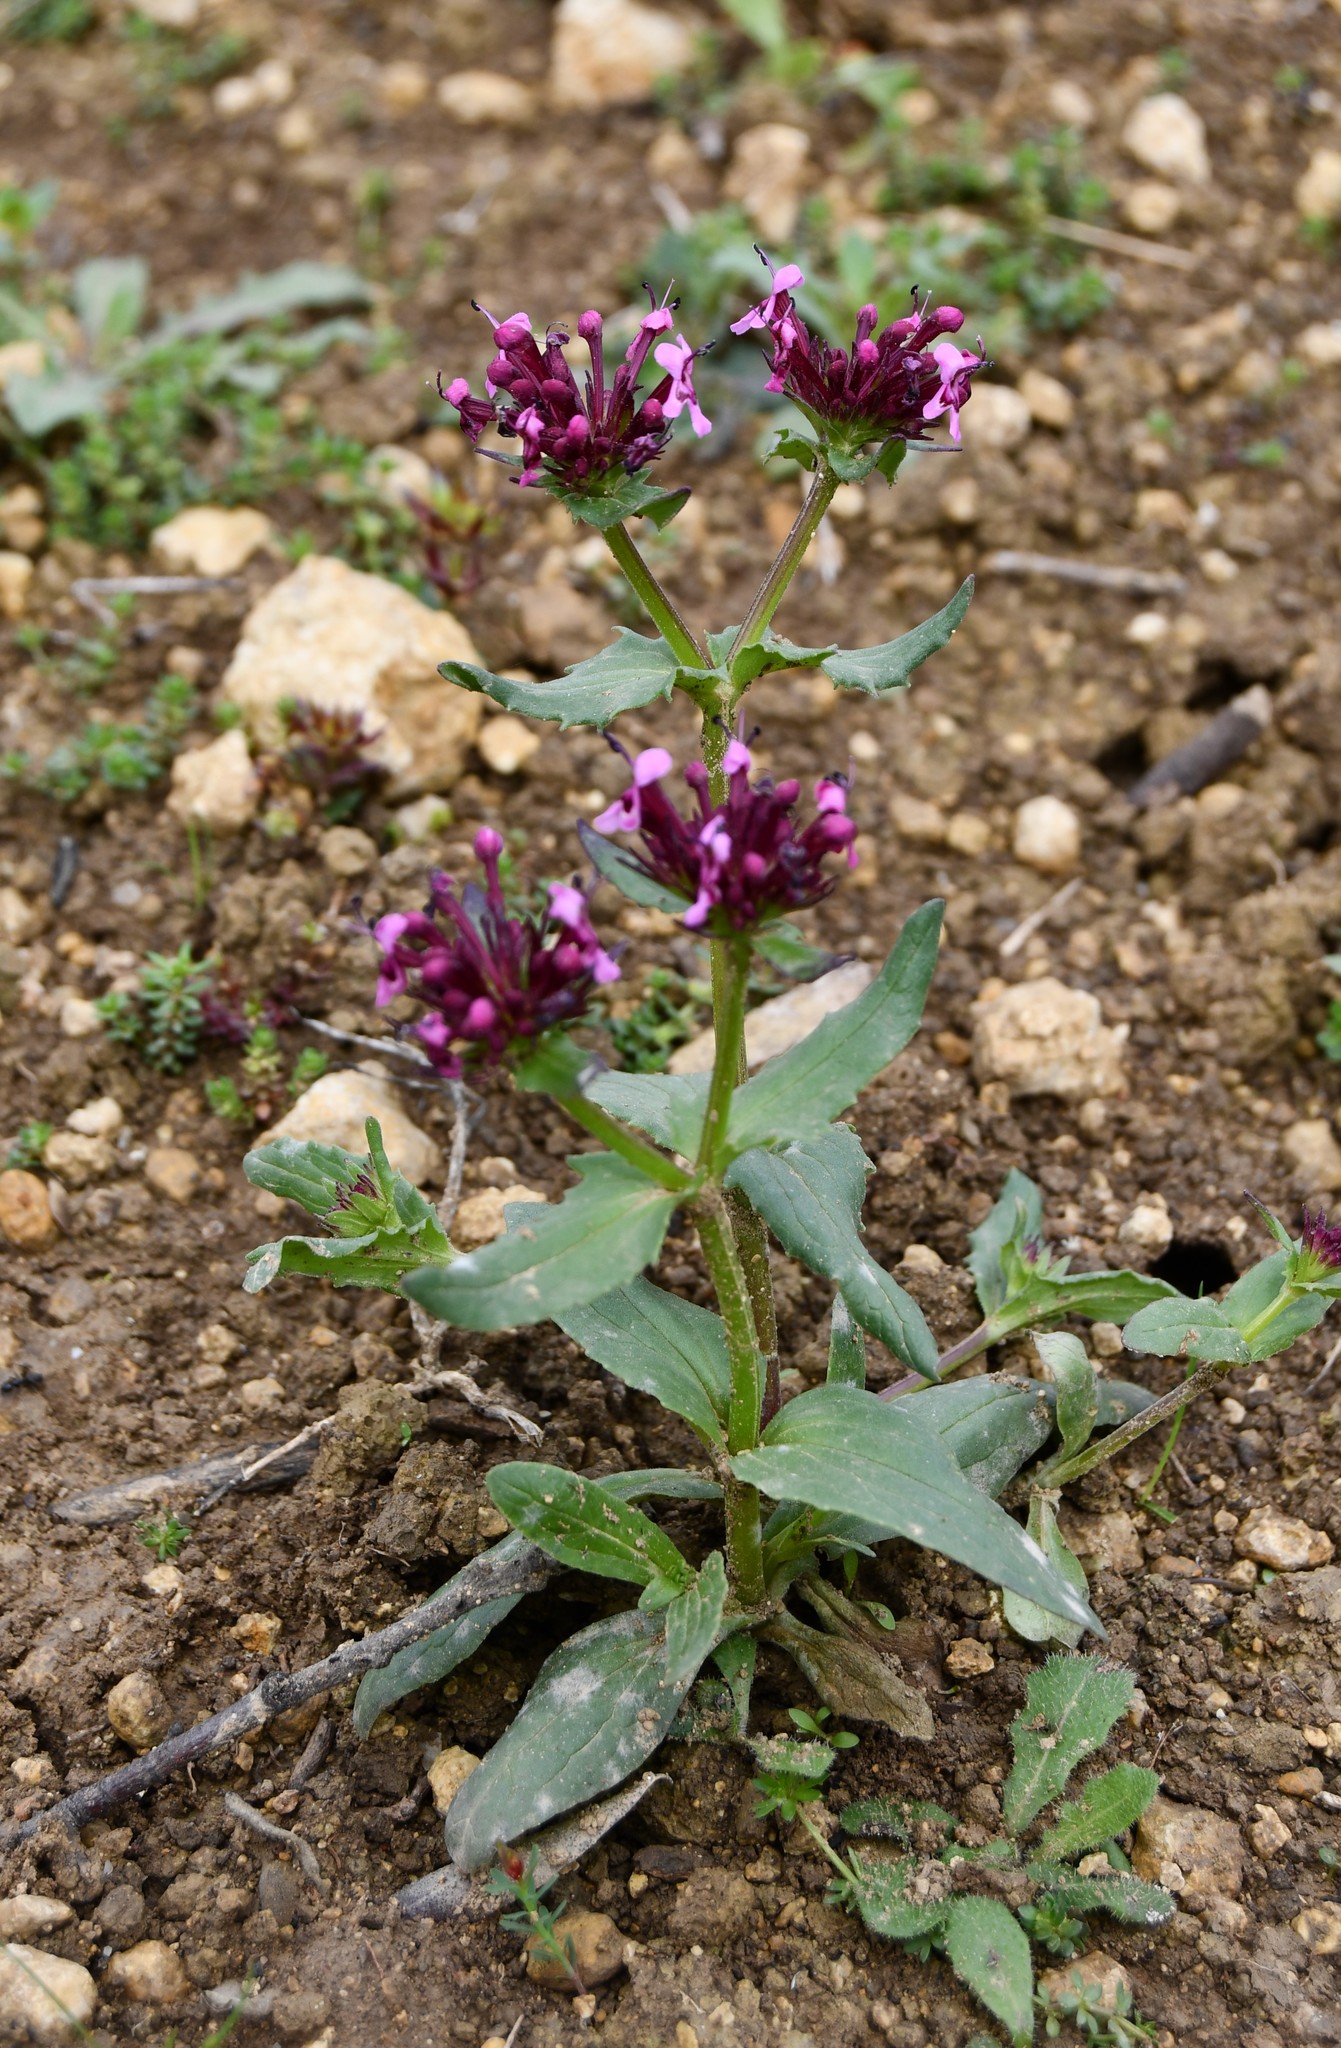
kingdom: Plantae
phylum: Tracheophyta
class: Magnoliopsida
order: Dipsacales
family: Caprifoliaceae
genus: Fedia
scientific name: Fedia cornucopiae
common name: Horn-of-plenty
